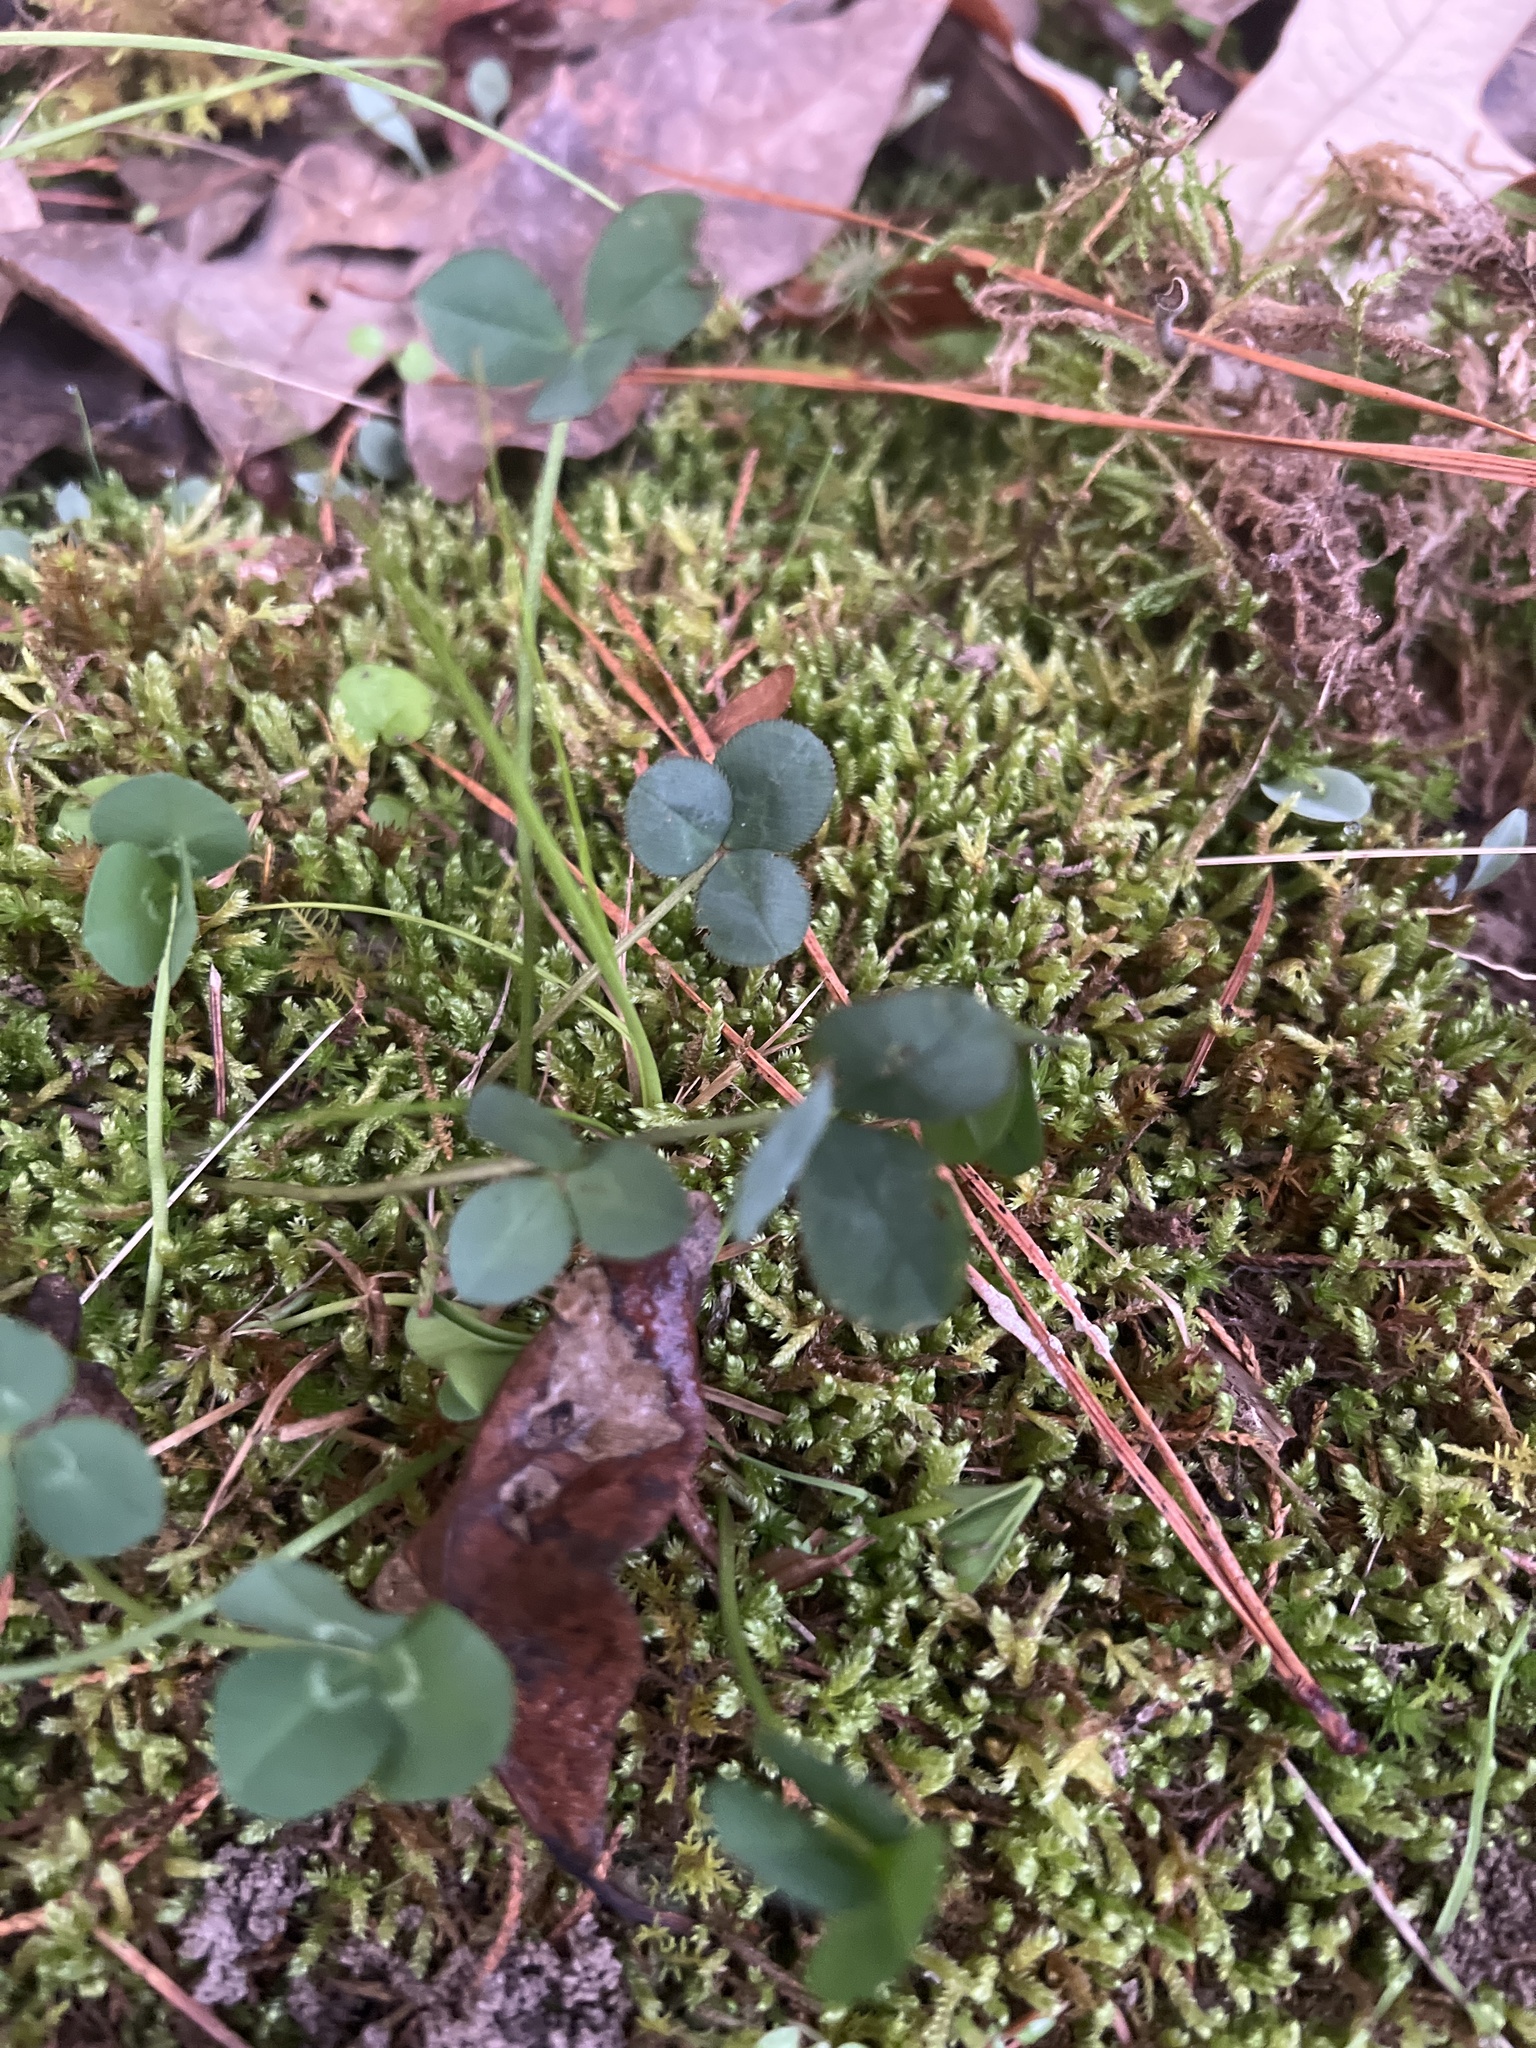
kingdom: Plantae
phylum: Tracheophyta
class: Magnoliopsida
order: Fabales
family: Fabaceae
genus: Trifolium
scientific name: Trifolium repens
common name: White clover
